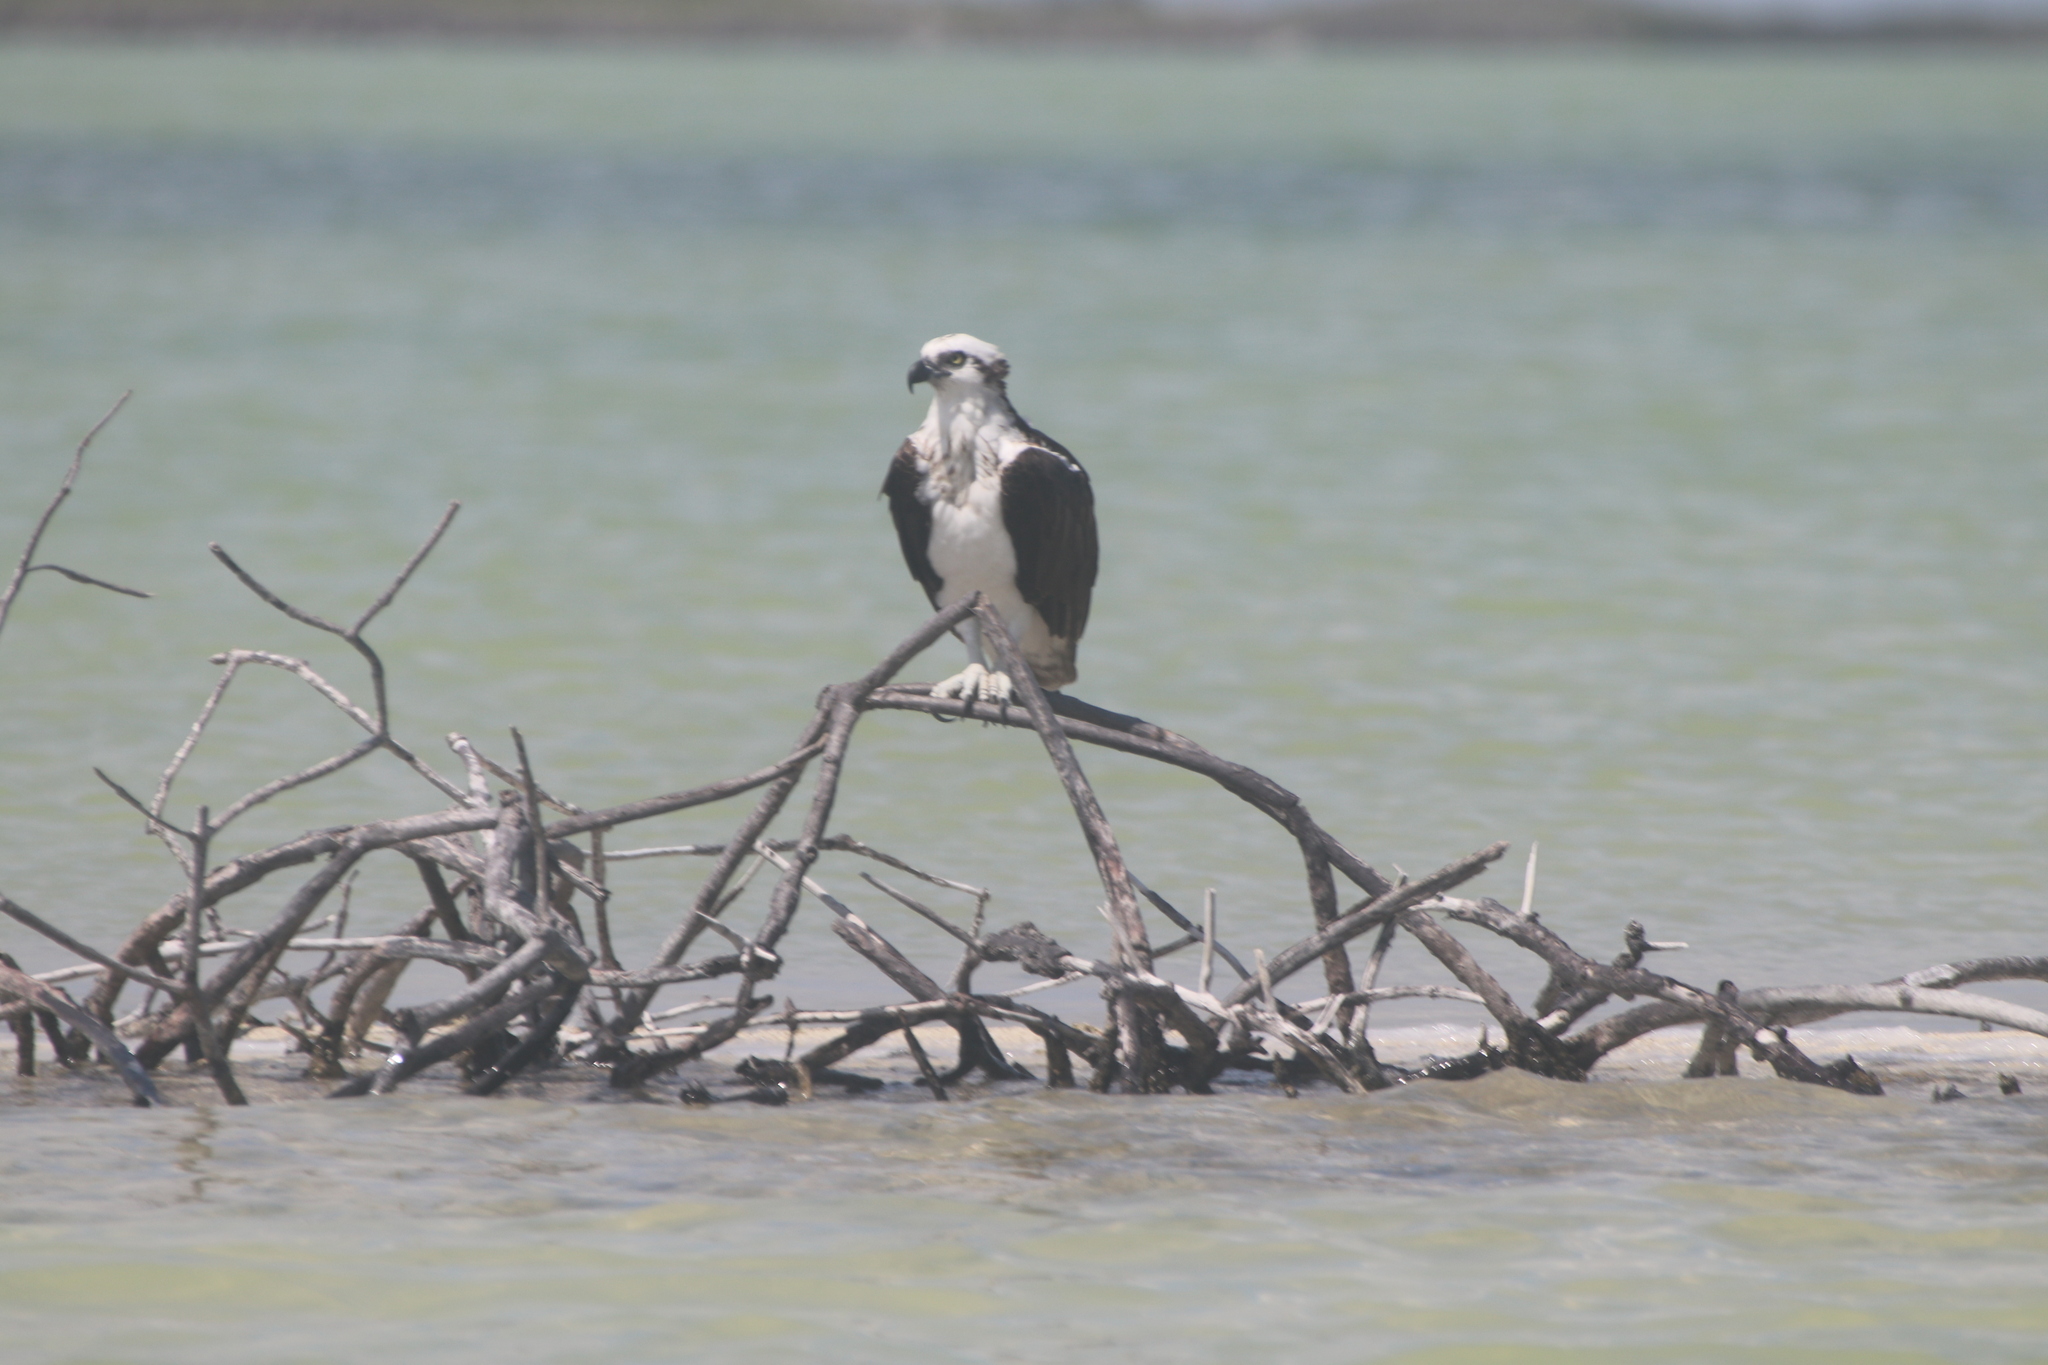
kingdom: Animalia
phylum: Chordata
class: Aves
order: Accipitriformes
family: Pandionidae
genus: Pandion
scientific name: Pandion haliaetus
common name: Osprey
